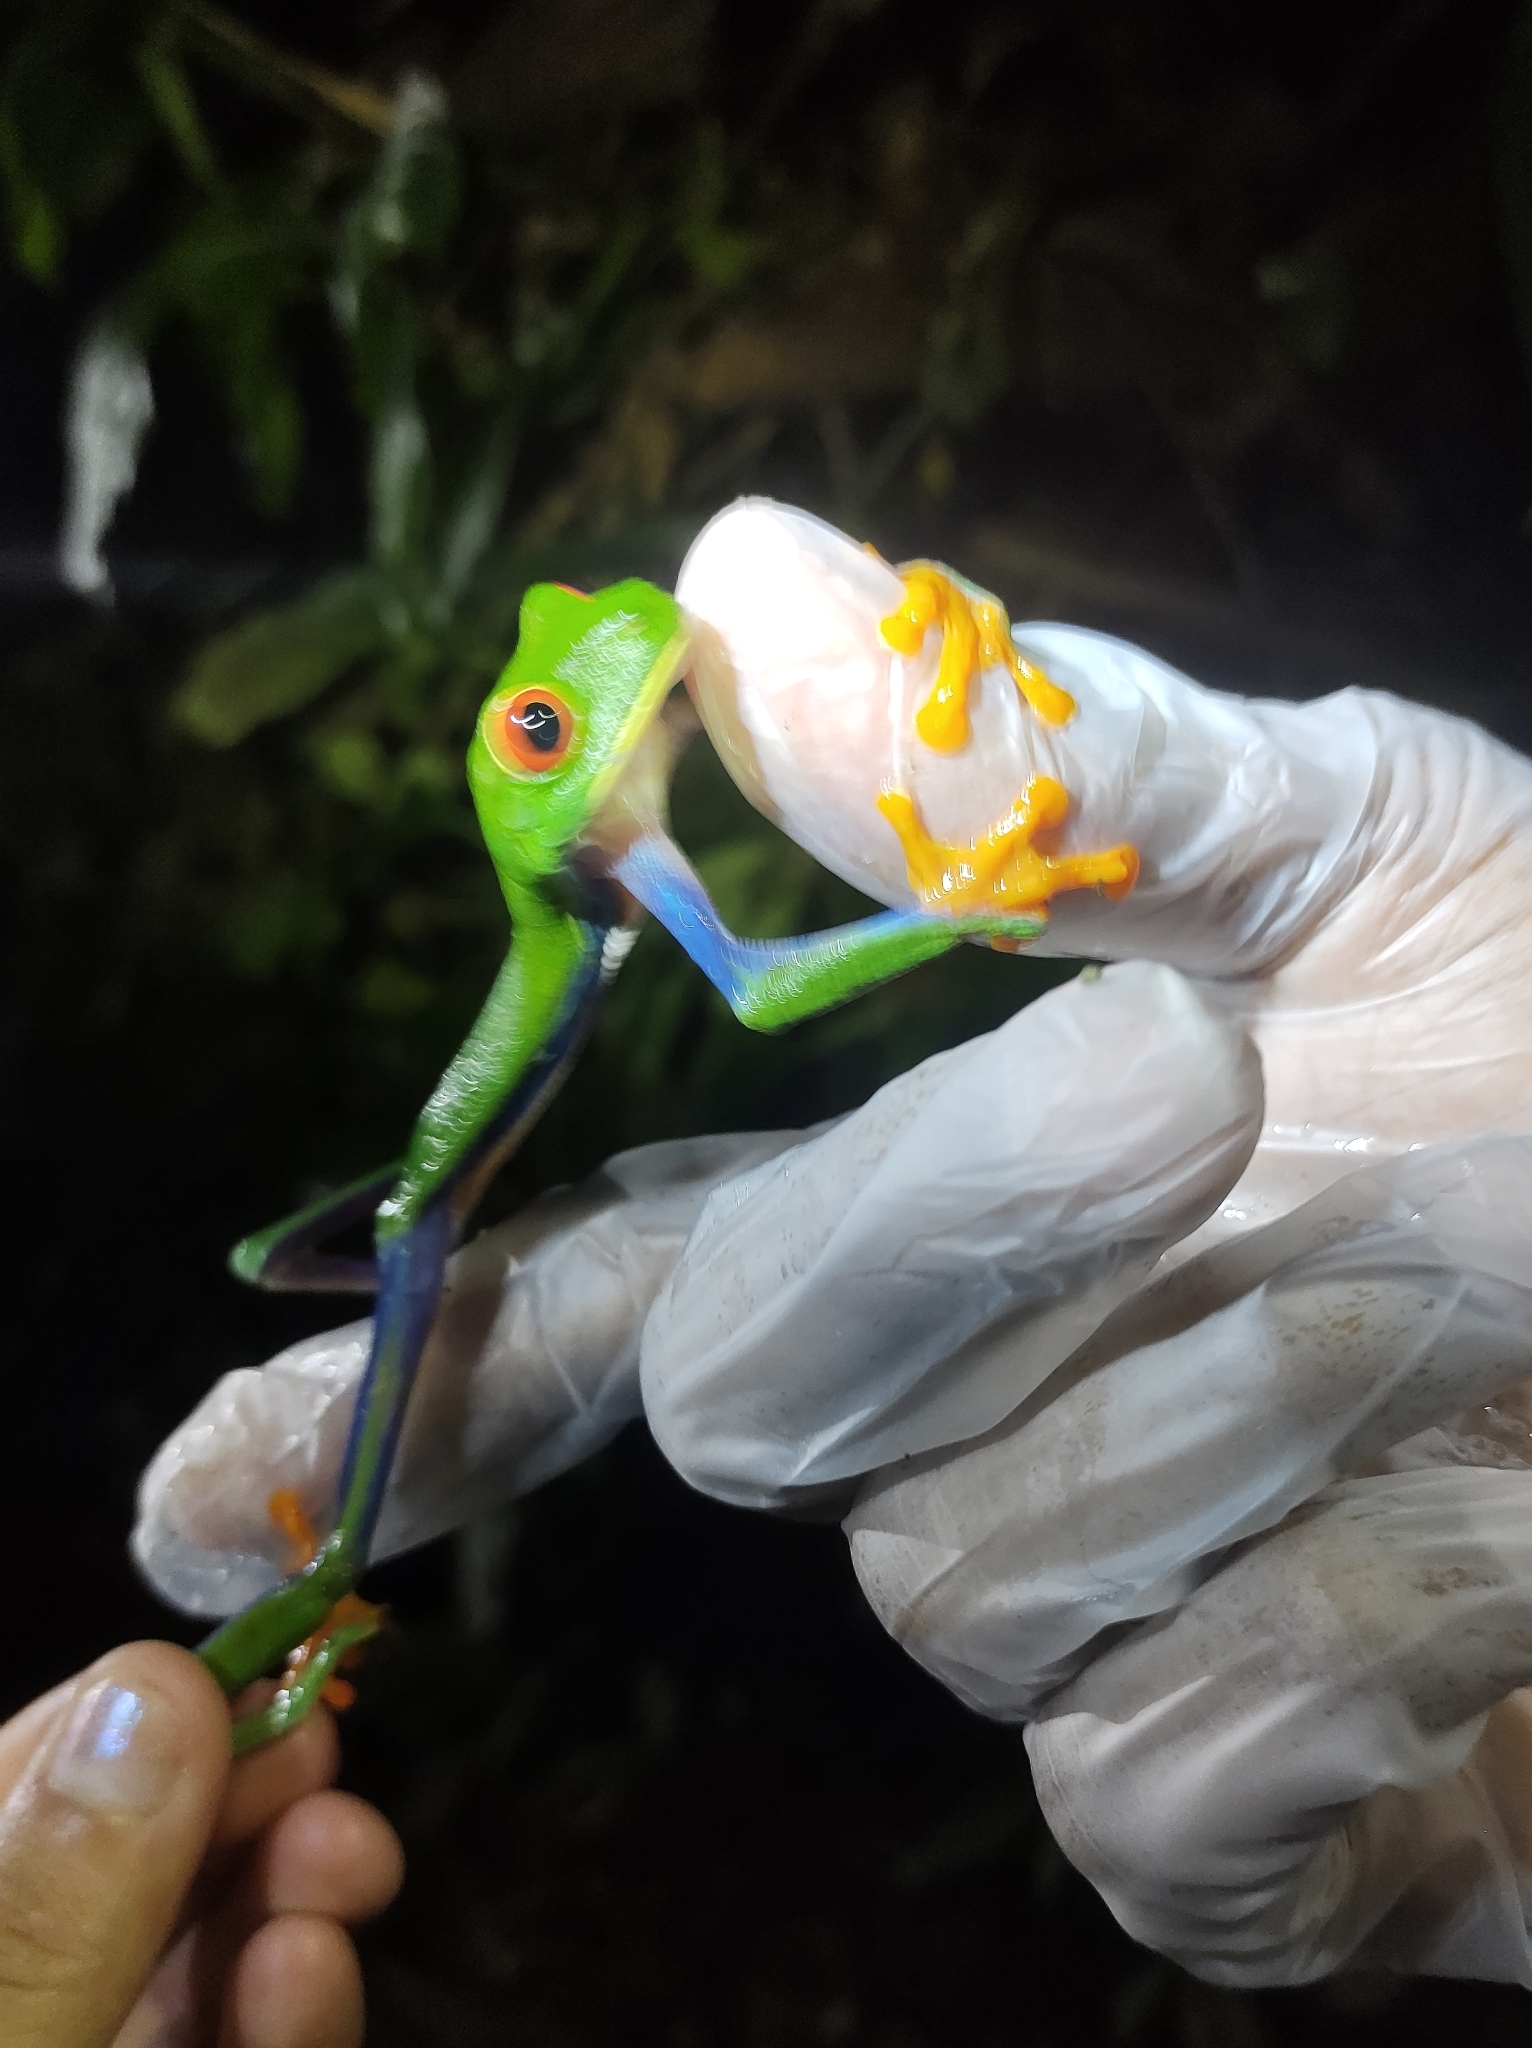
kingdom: Animalia
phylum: Chordata
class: Amphibia
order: Anura
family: Phyllomedusidae
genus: Agalychnis
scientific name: Agalychnis saltator
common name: Misfit leaf frog
